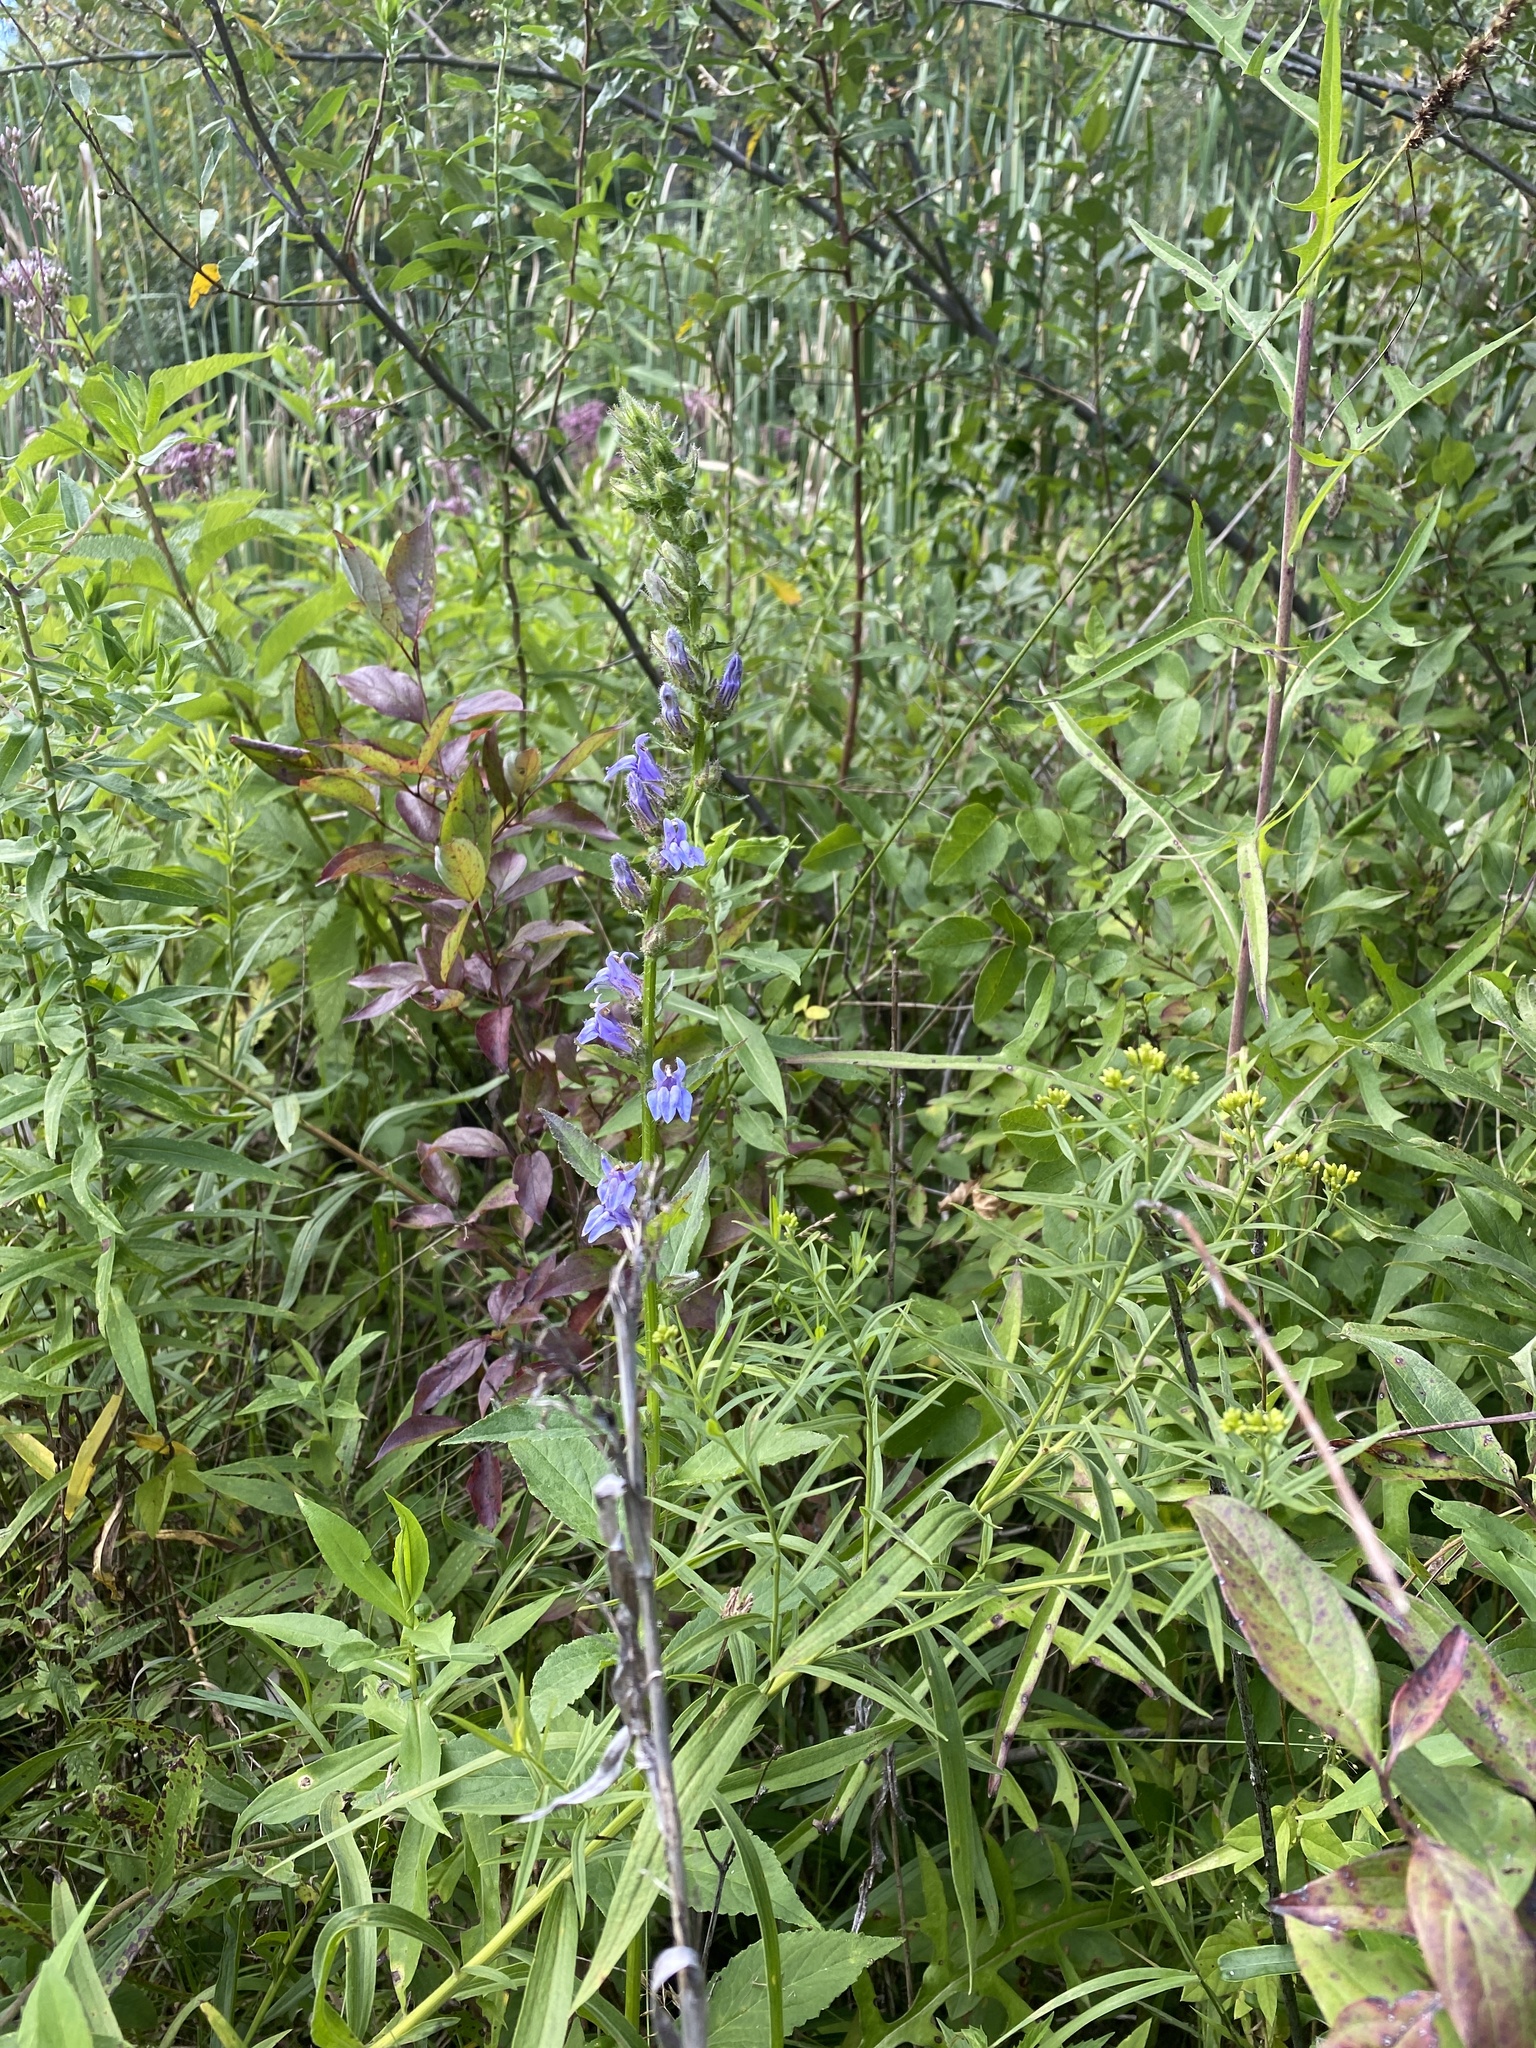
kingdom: Plantae
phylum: Tracheophyta
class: Magnoliopsida
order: Asterales
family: Campanulaceae
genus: Lobelia
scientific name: Lobelia siphilitica
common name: Great lobelia
